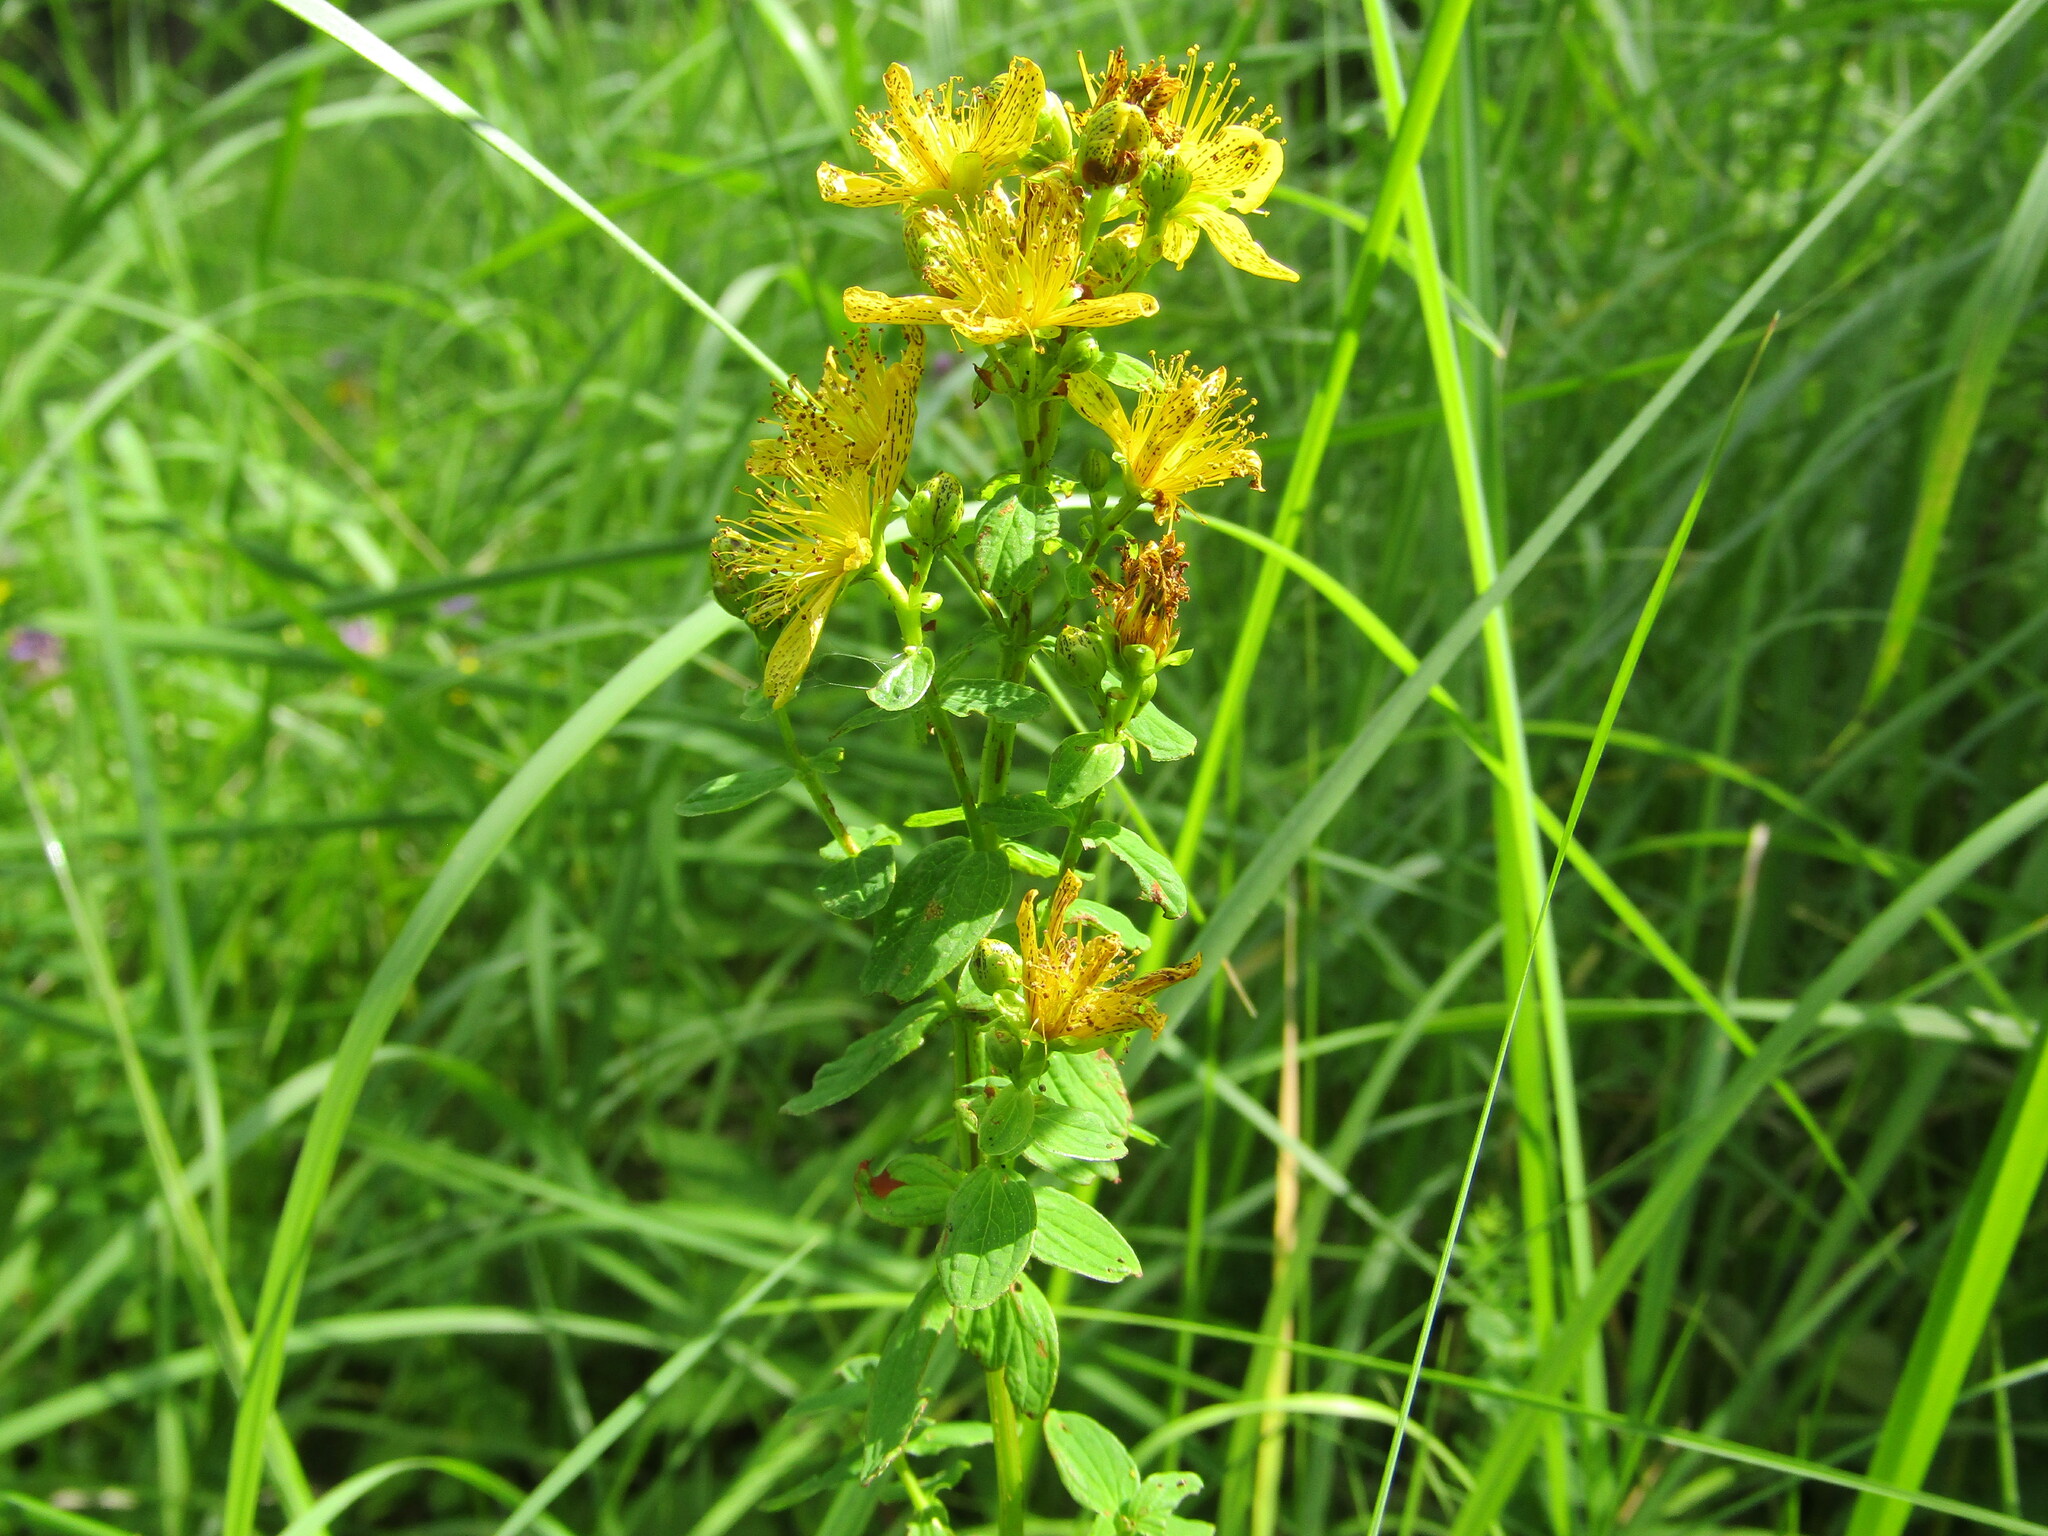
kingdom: Plantae
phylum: Tracheophyta
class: Magnoliopsida
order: Malpighiales
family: Hypericaceae
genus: Hypericum
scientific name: Hypericum maculatum
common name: Imperforate st. john's-wort
